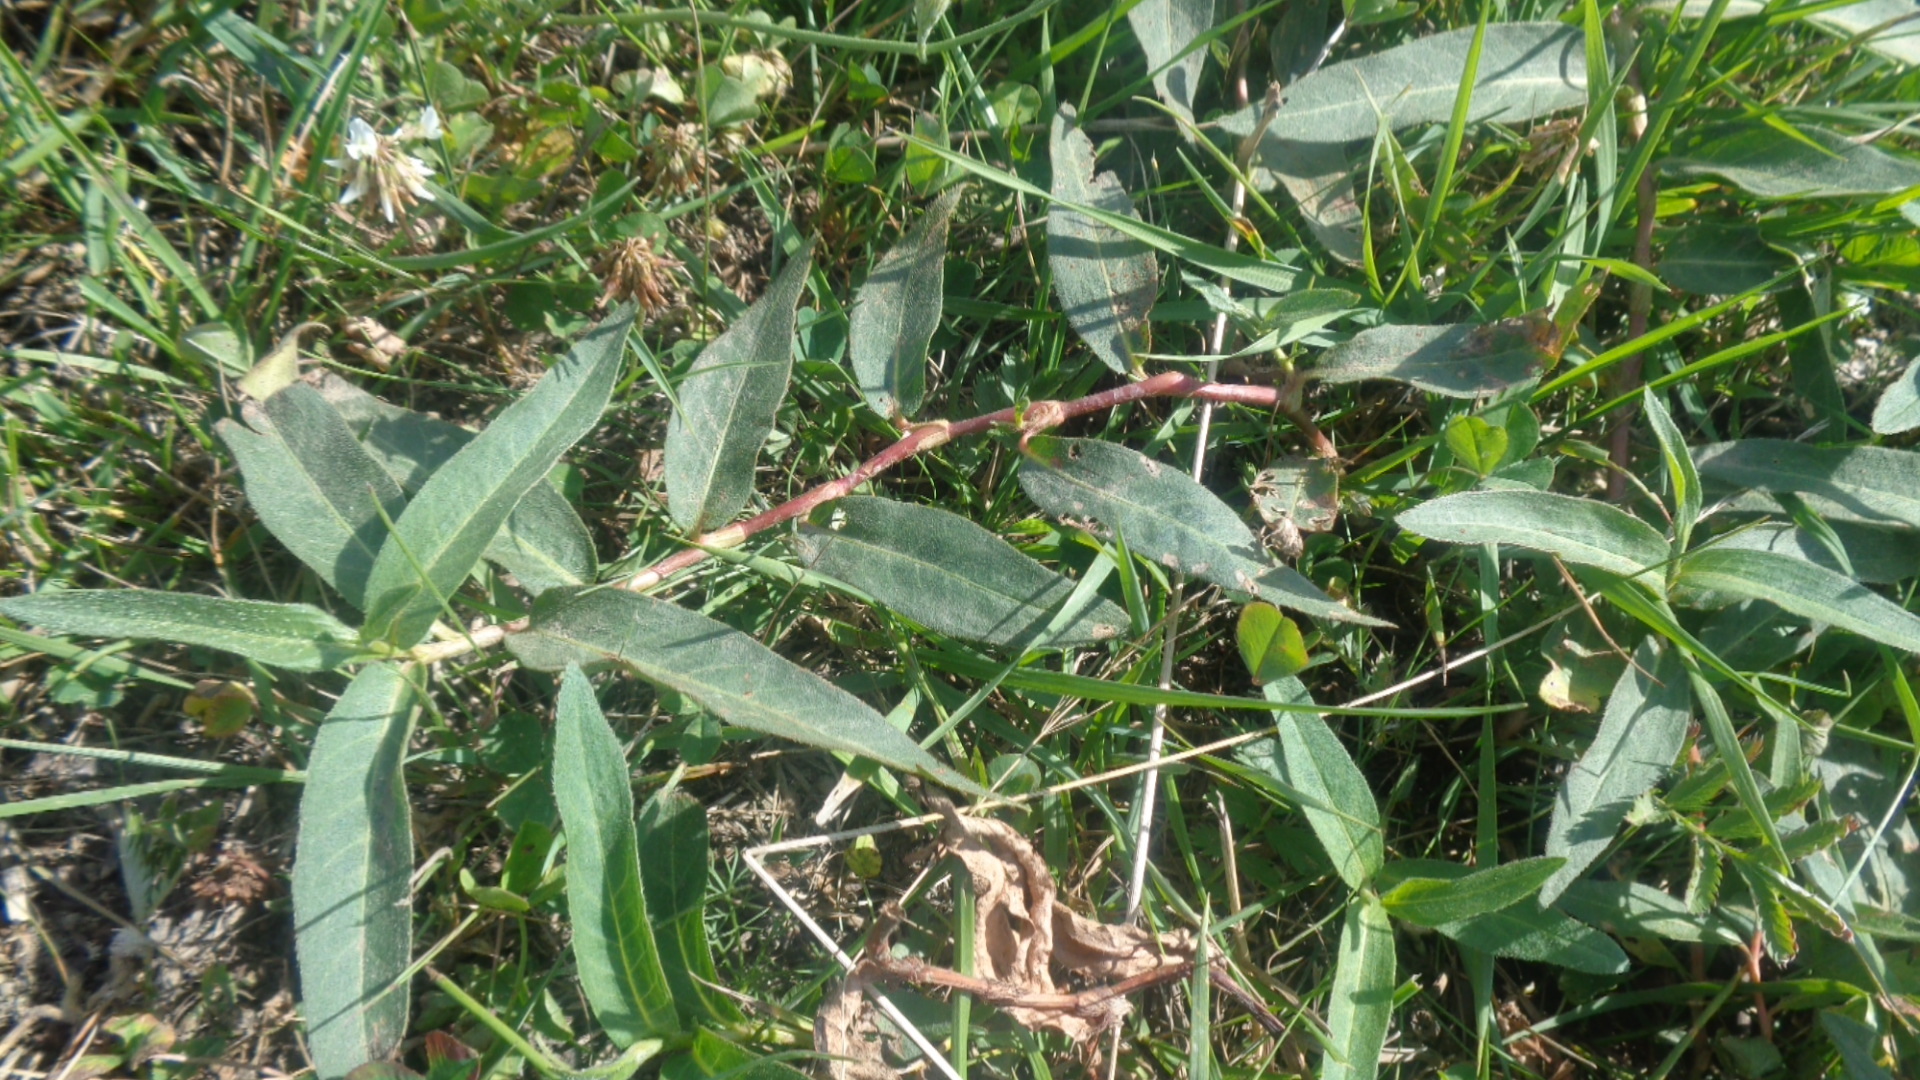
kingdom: Plantae
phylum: Tracheophyta
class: Magnoliopsida
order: Caryophyllales
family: Polygonaceae
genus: Persicaria
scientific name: Persicaria amphibia
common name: Amphibious bistort
